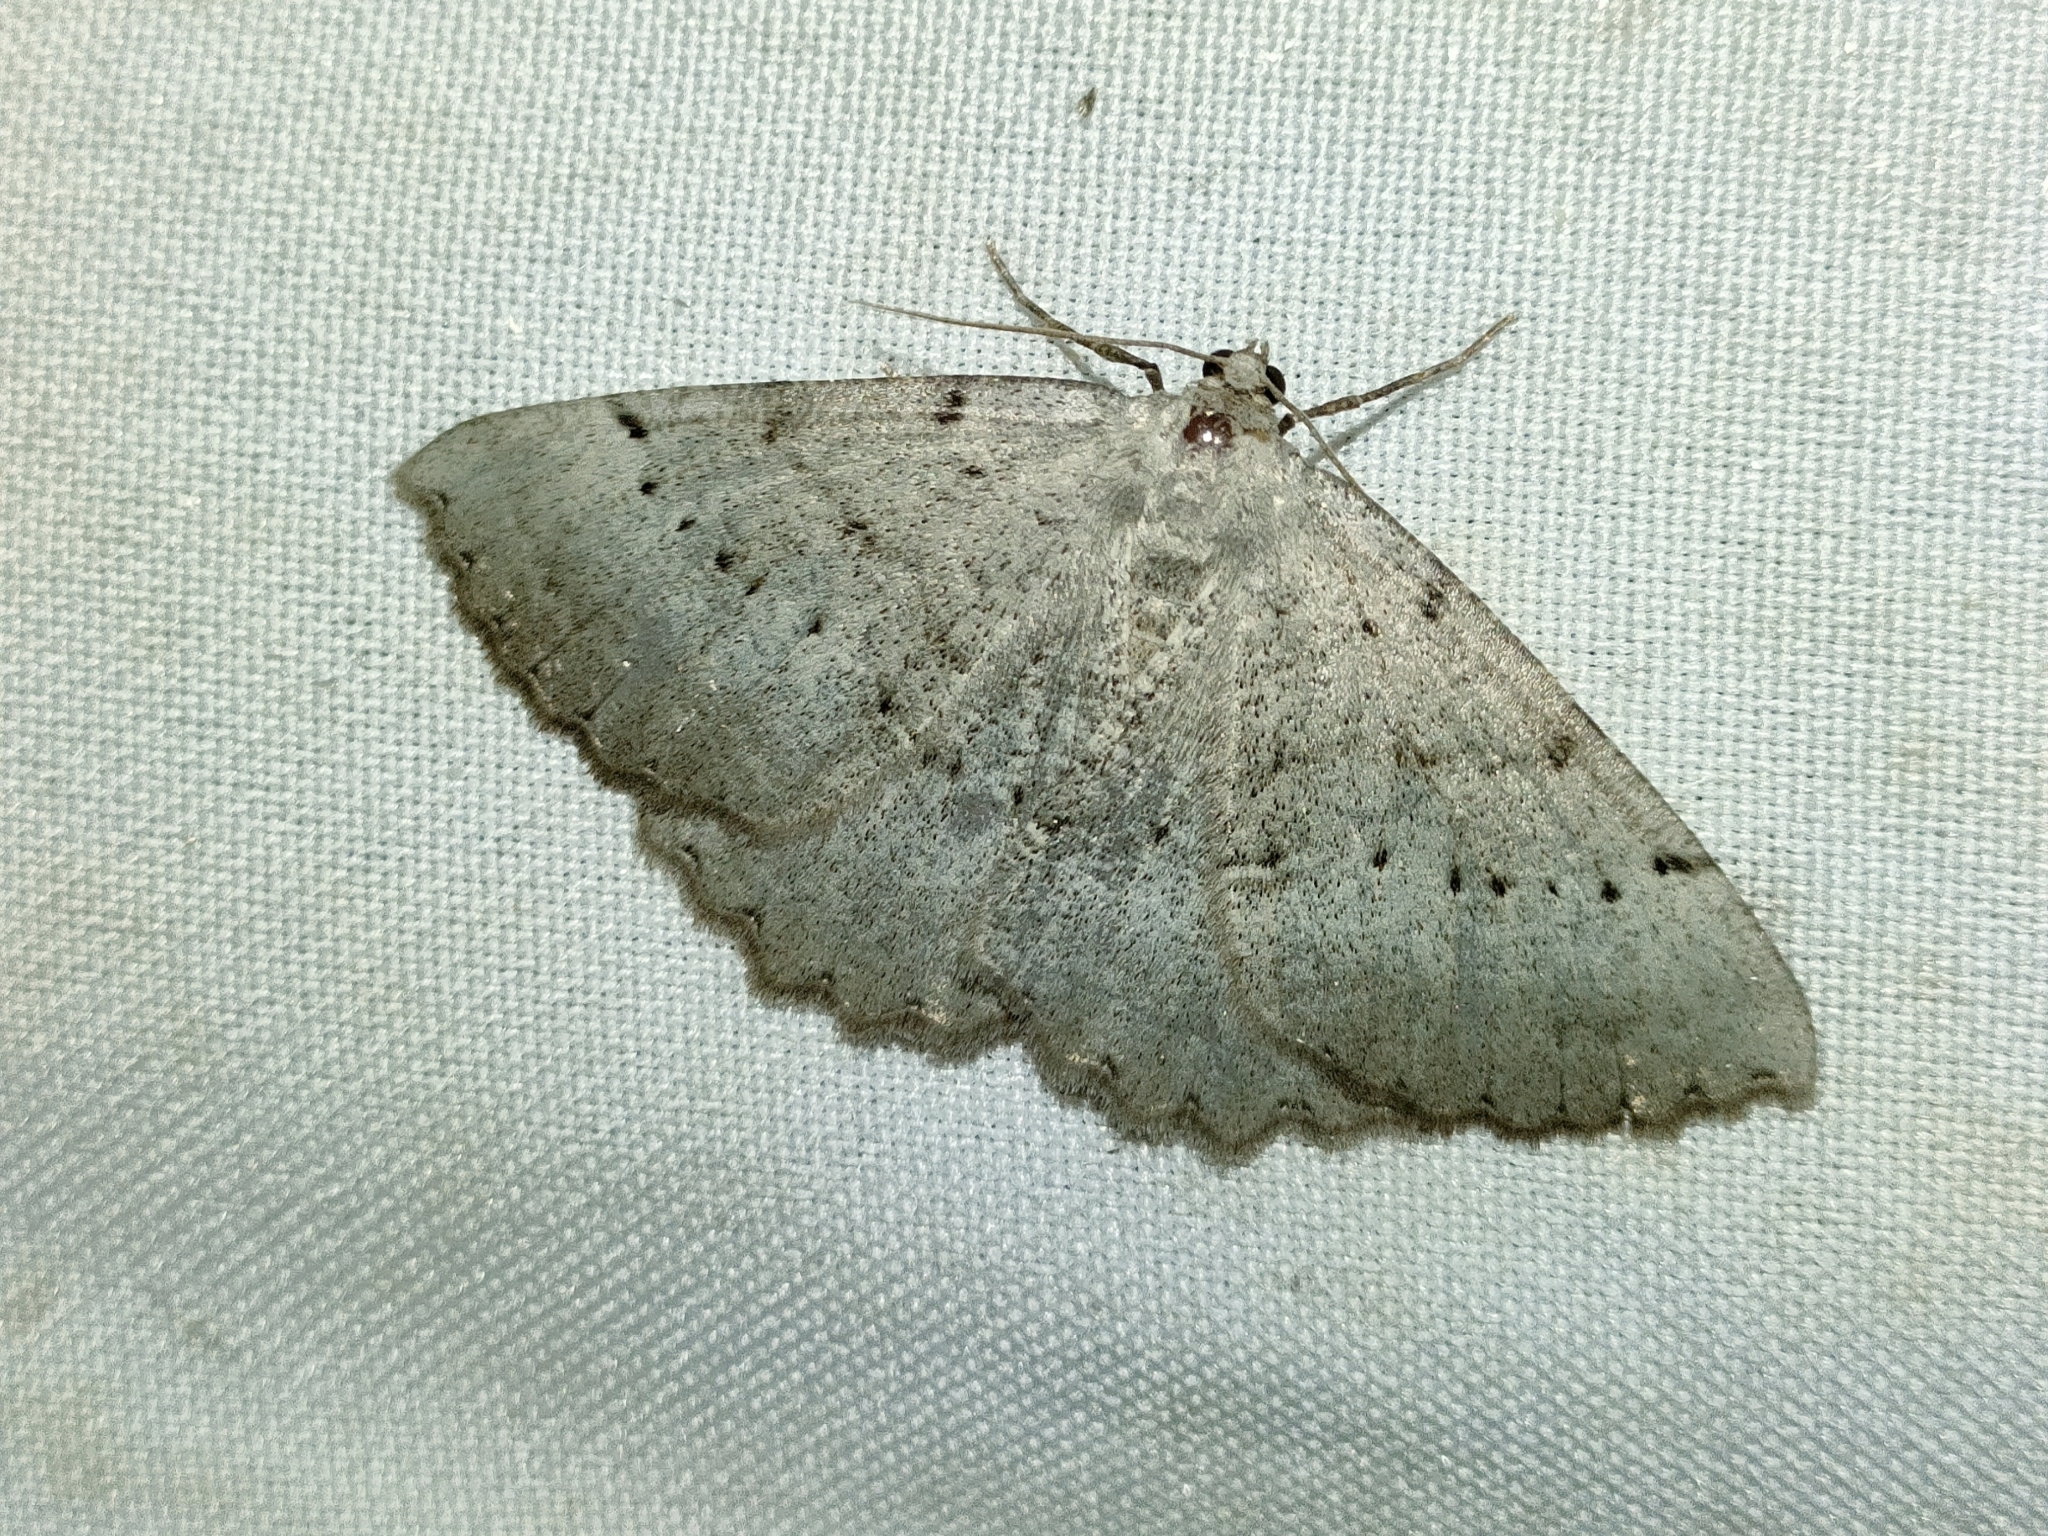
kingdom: Animalia
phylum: Arthropoda
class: Insecta
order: Lepidoptera
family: Geometridae
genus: Odontognophos
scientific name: Odontognophos dumetata
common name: Irish annulet
